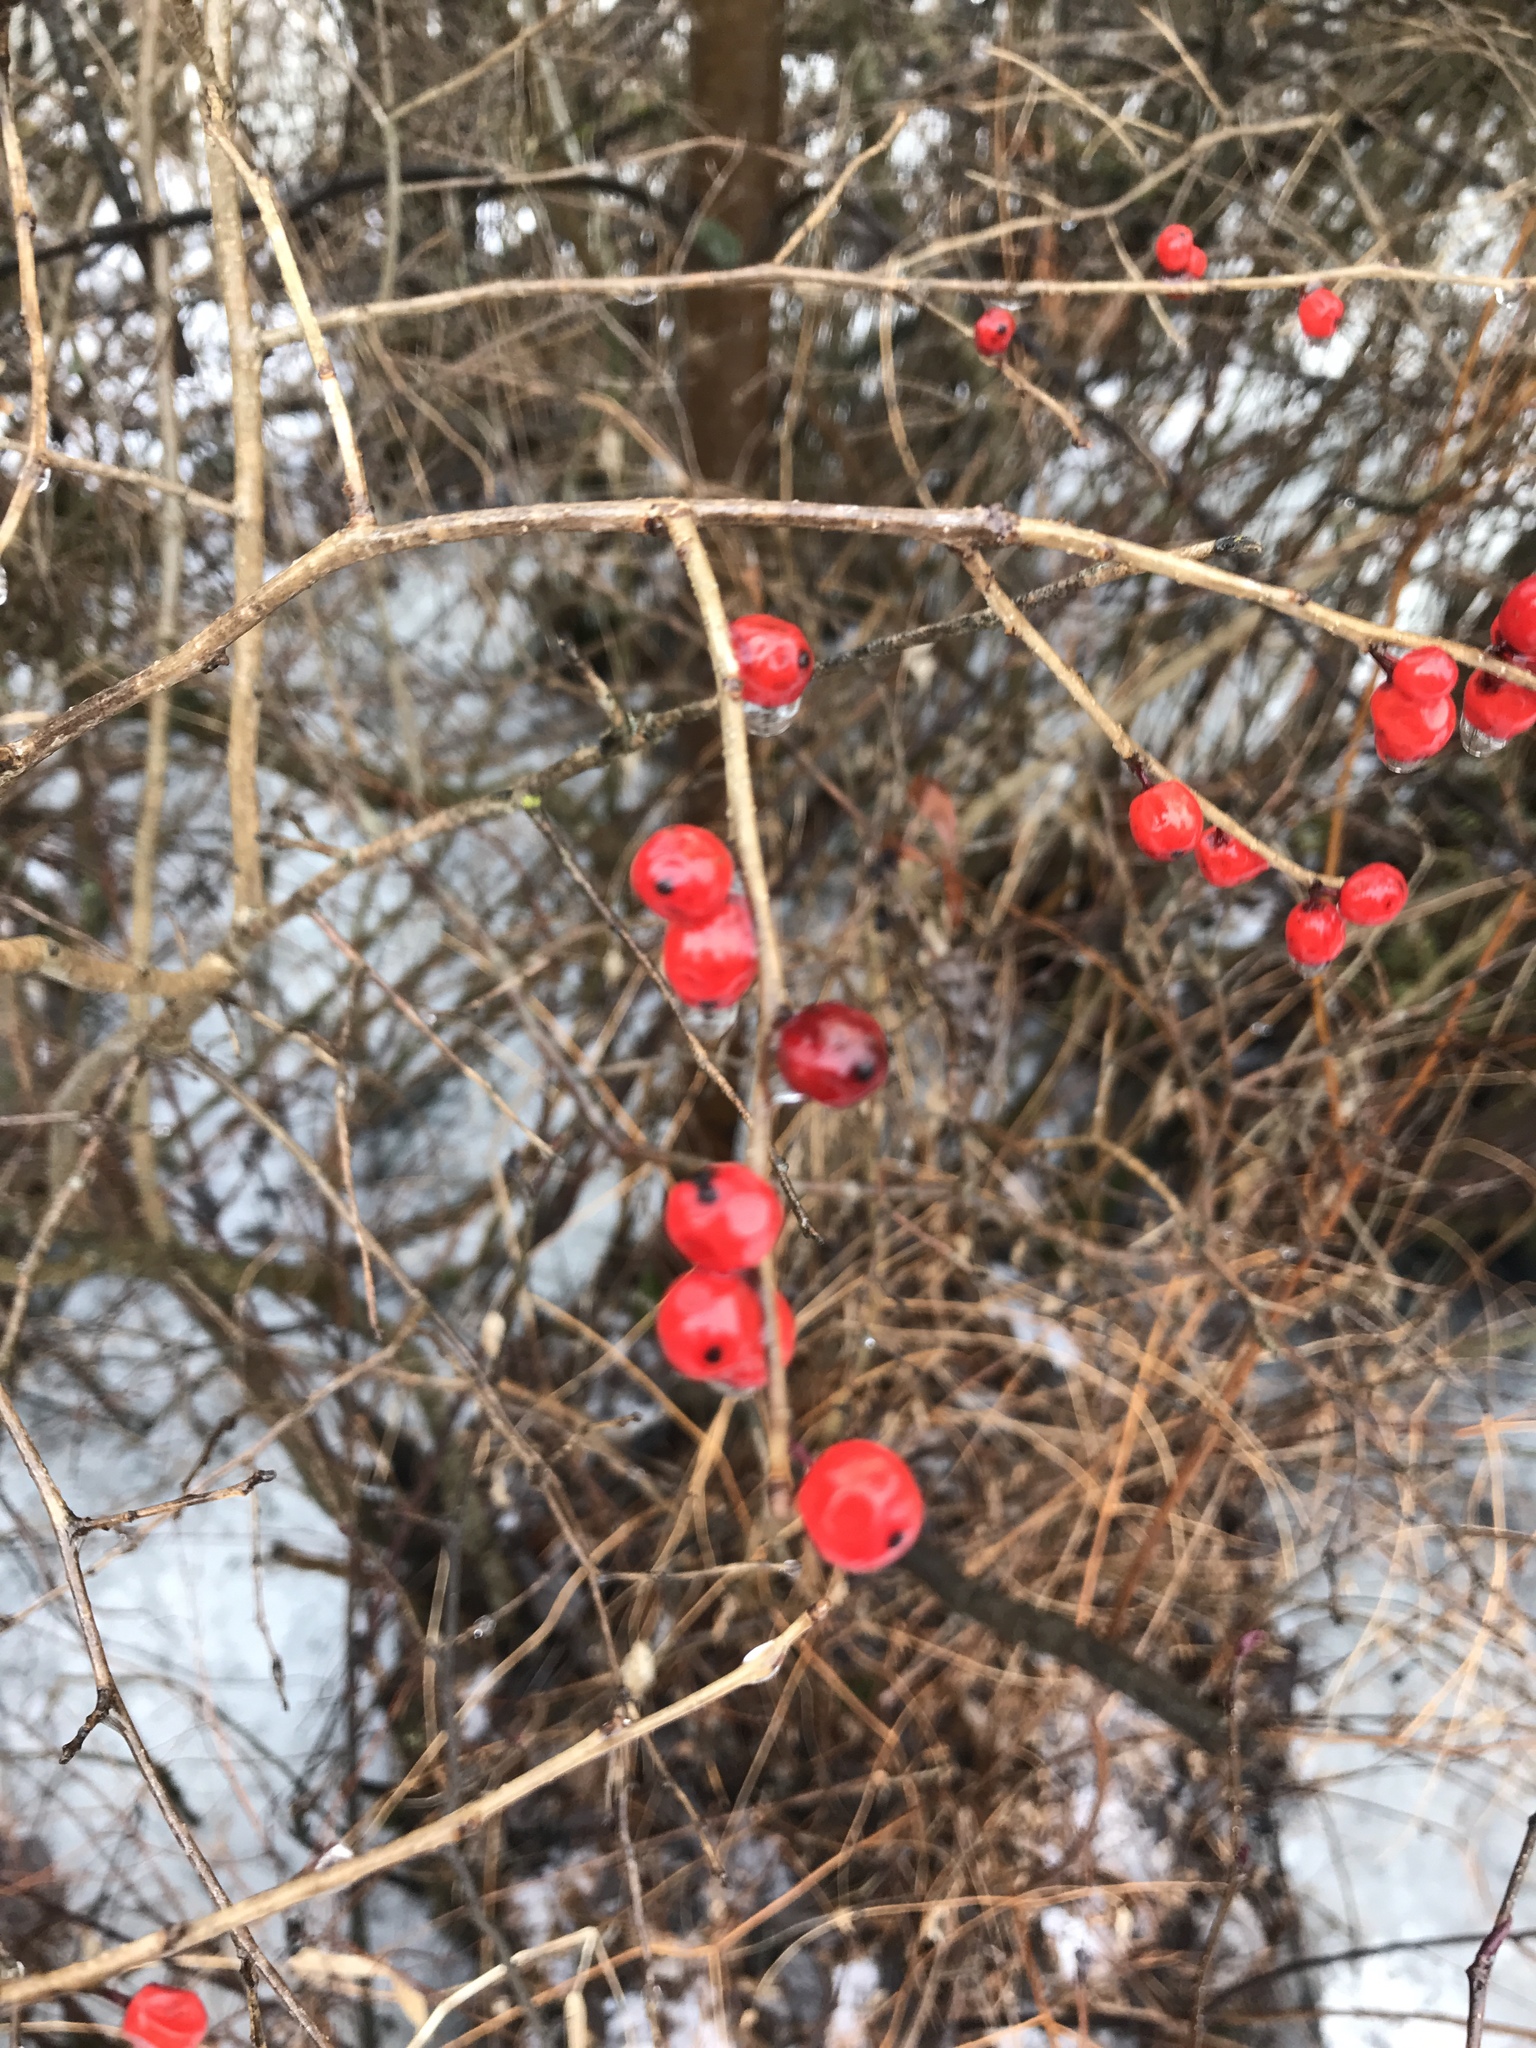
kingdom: Plantae
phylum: Tracheophyta
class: Magnoliopsida
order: Aquifoliales
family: Aquifoliaceae
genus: Ilex
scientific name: Ilex verticillata
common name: Virginia winterberry
